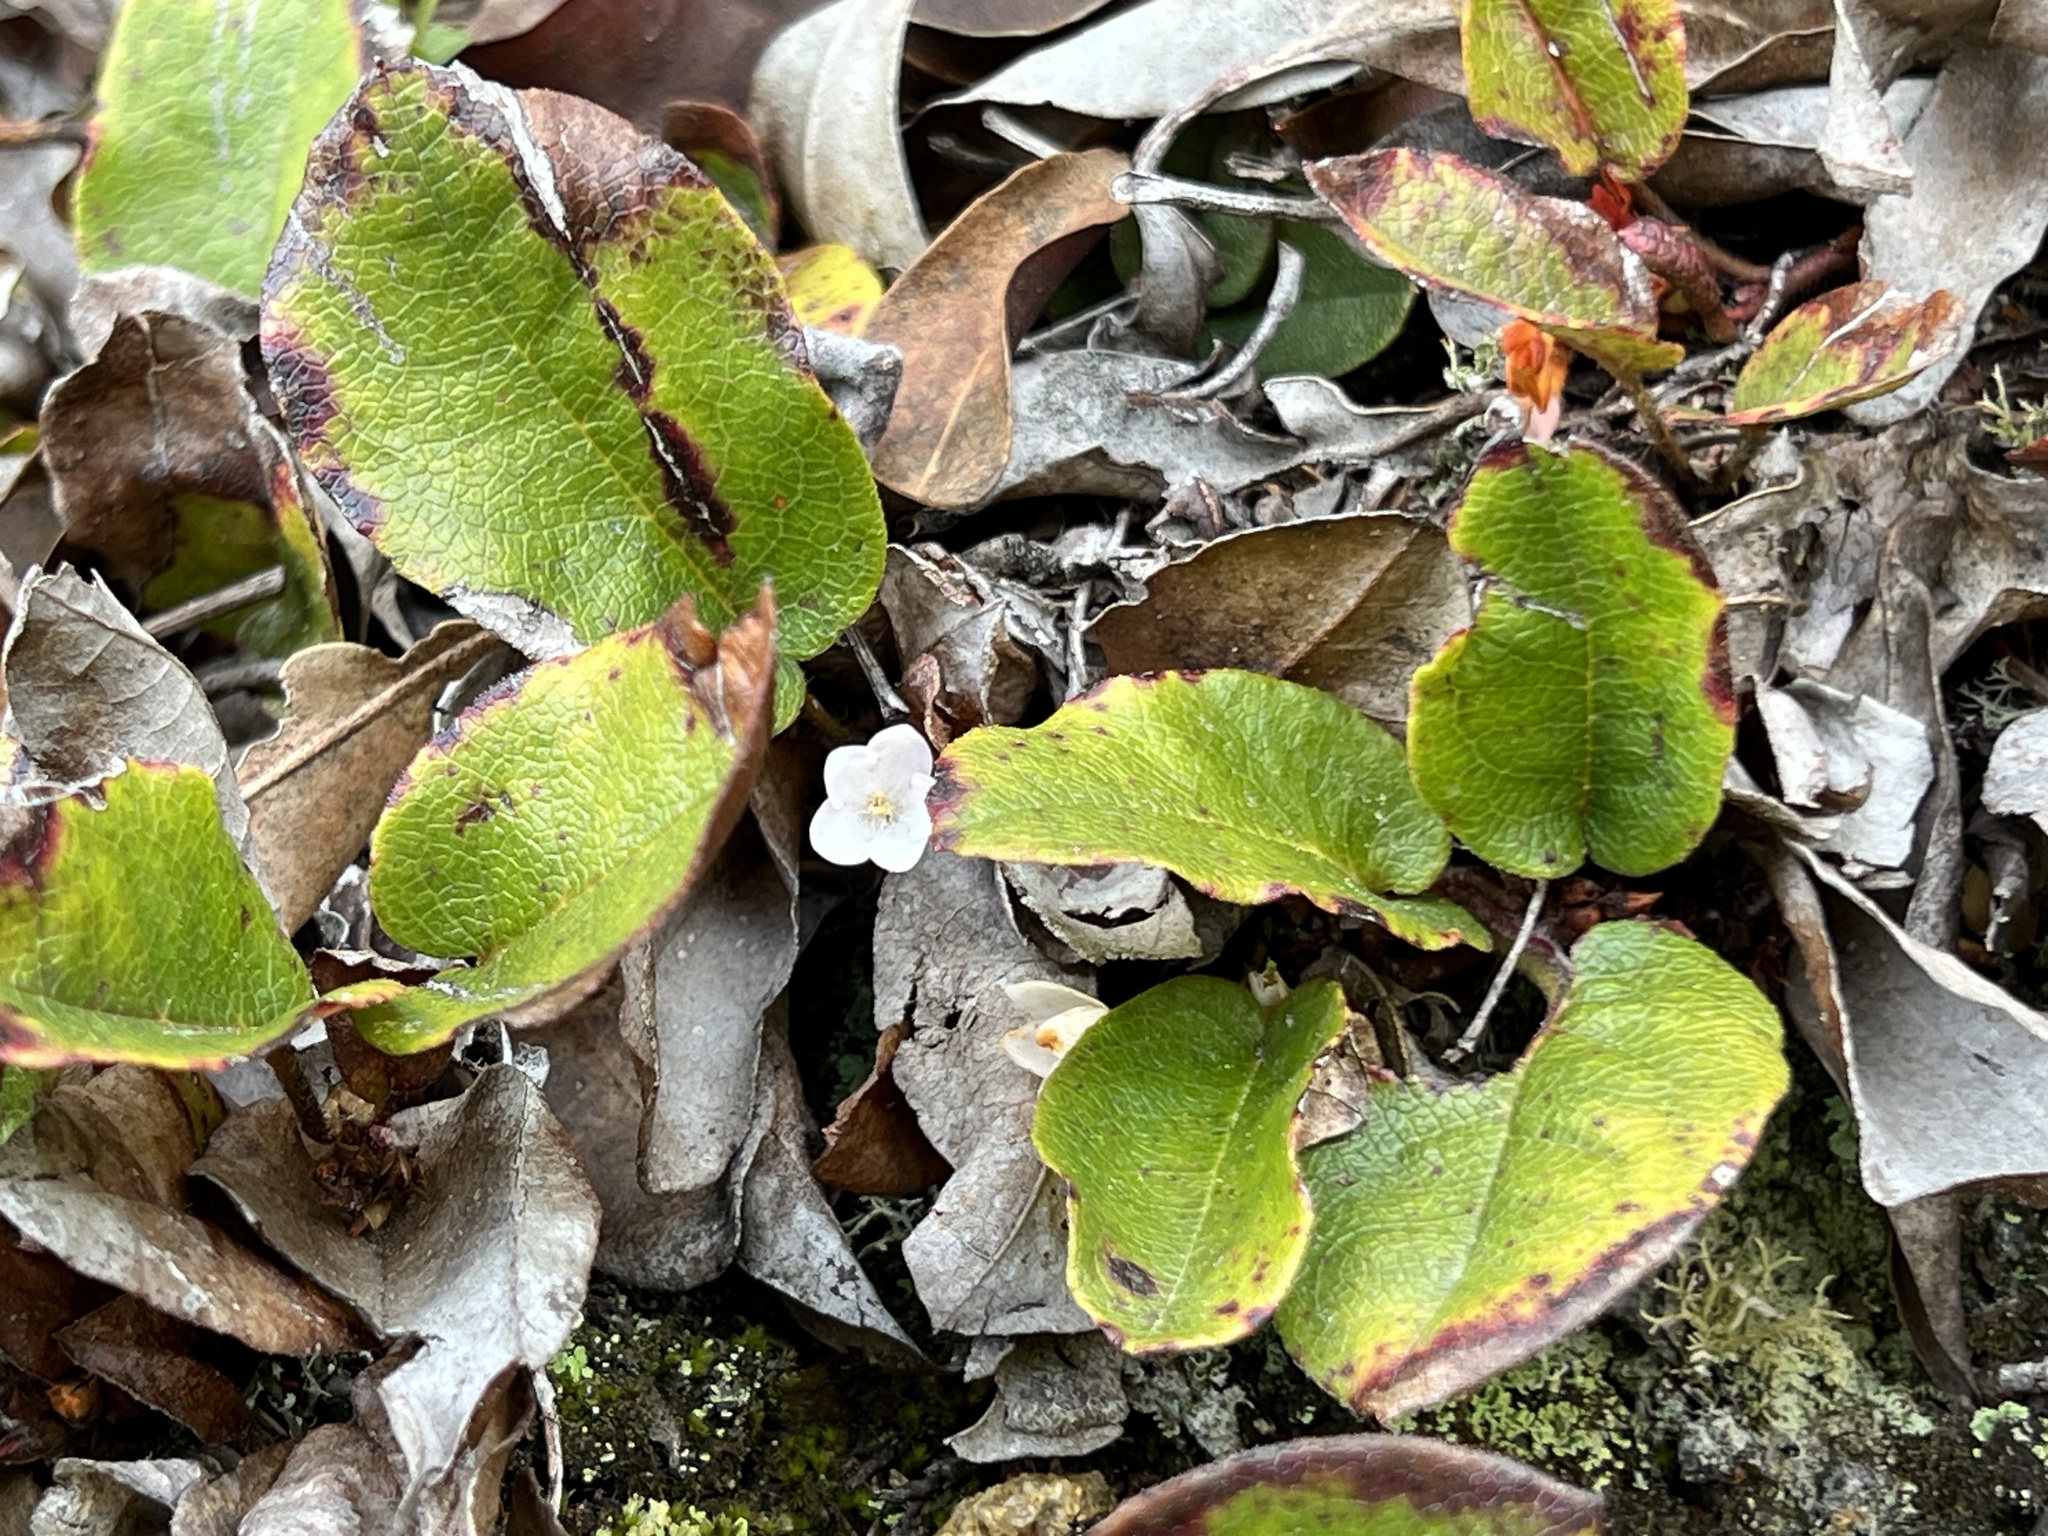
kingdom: Plantae
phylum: Tracheophyta
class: Magnoliopsida
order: Ericales
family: Ericaceae
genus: Epigaea
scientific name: Epigaea repens
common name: Gravelroot
